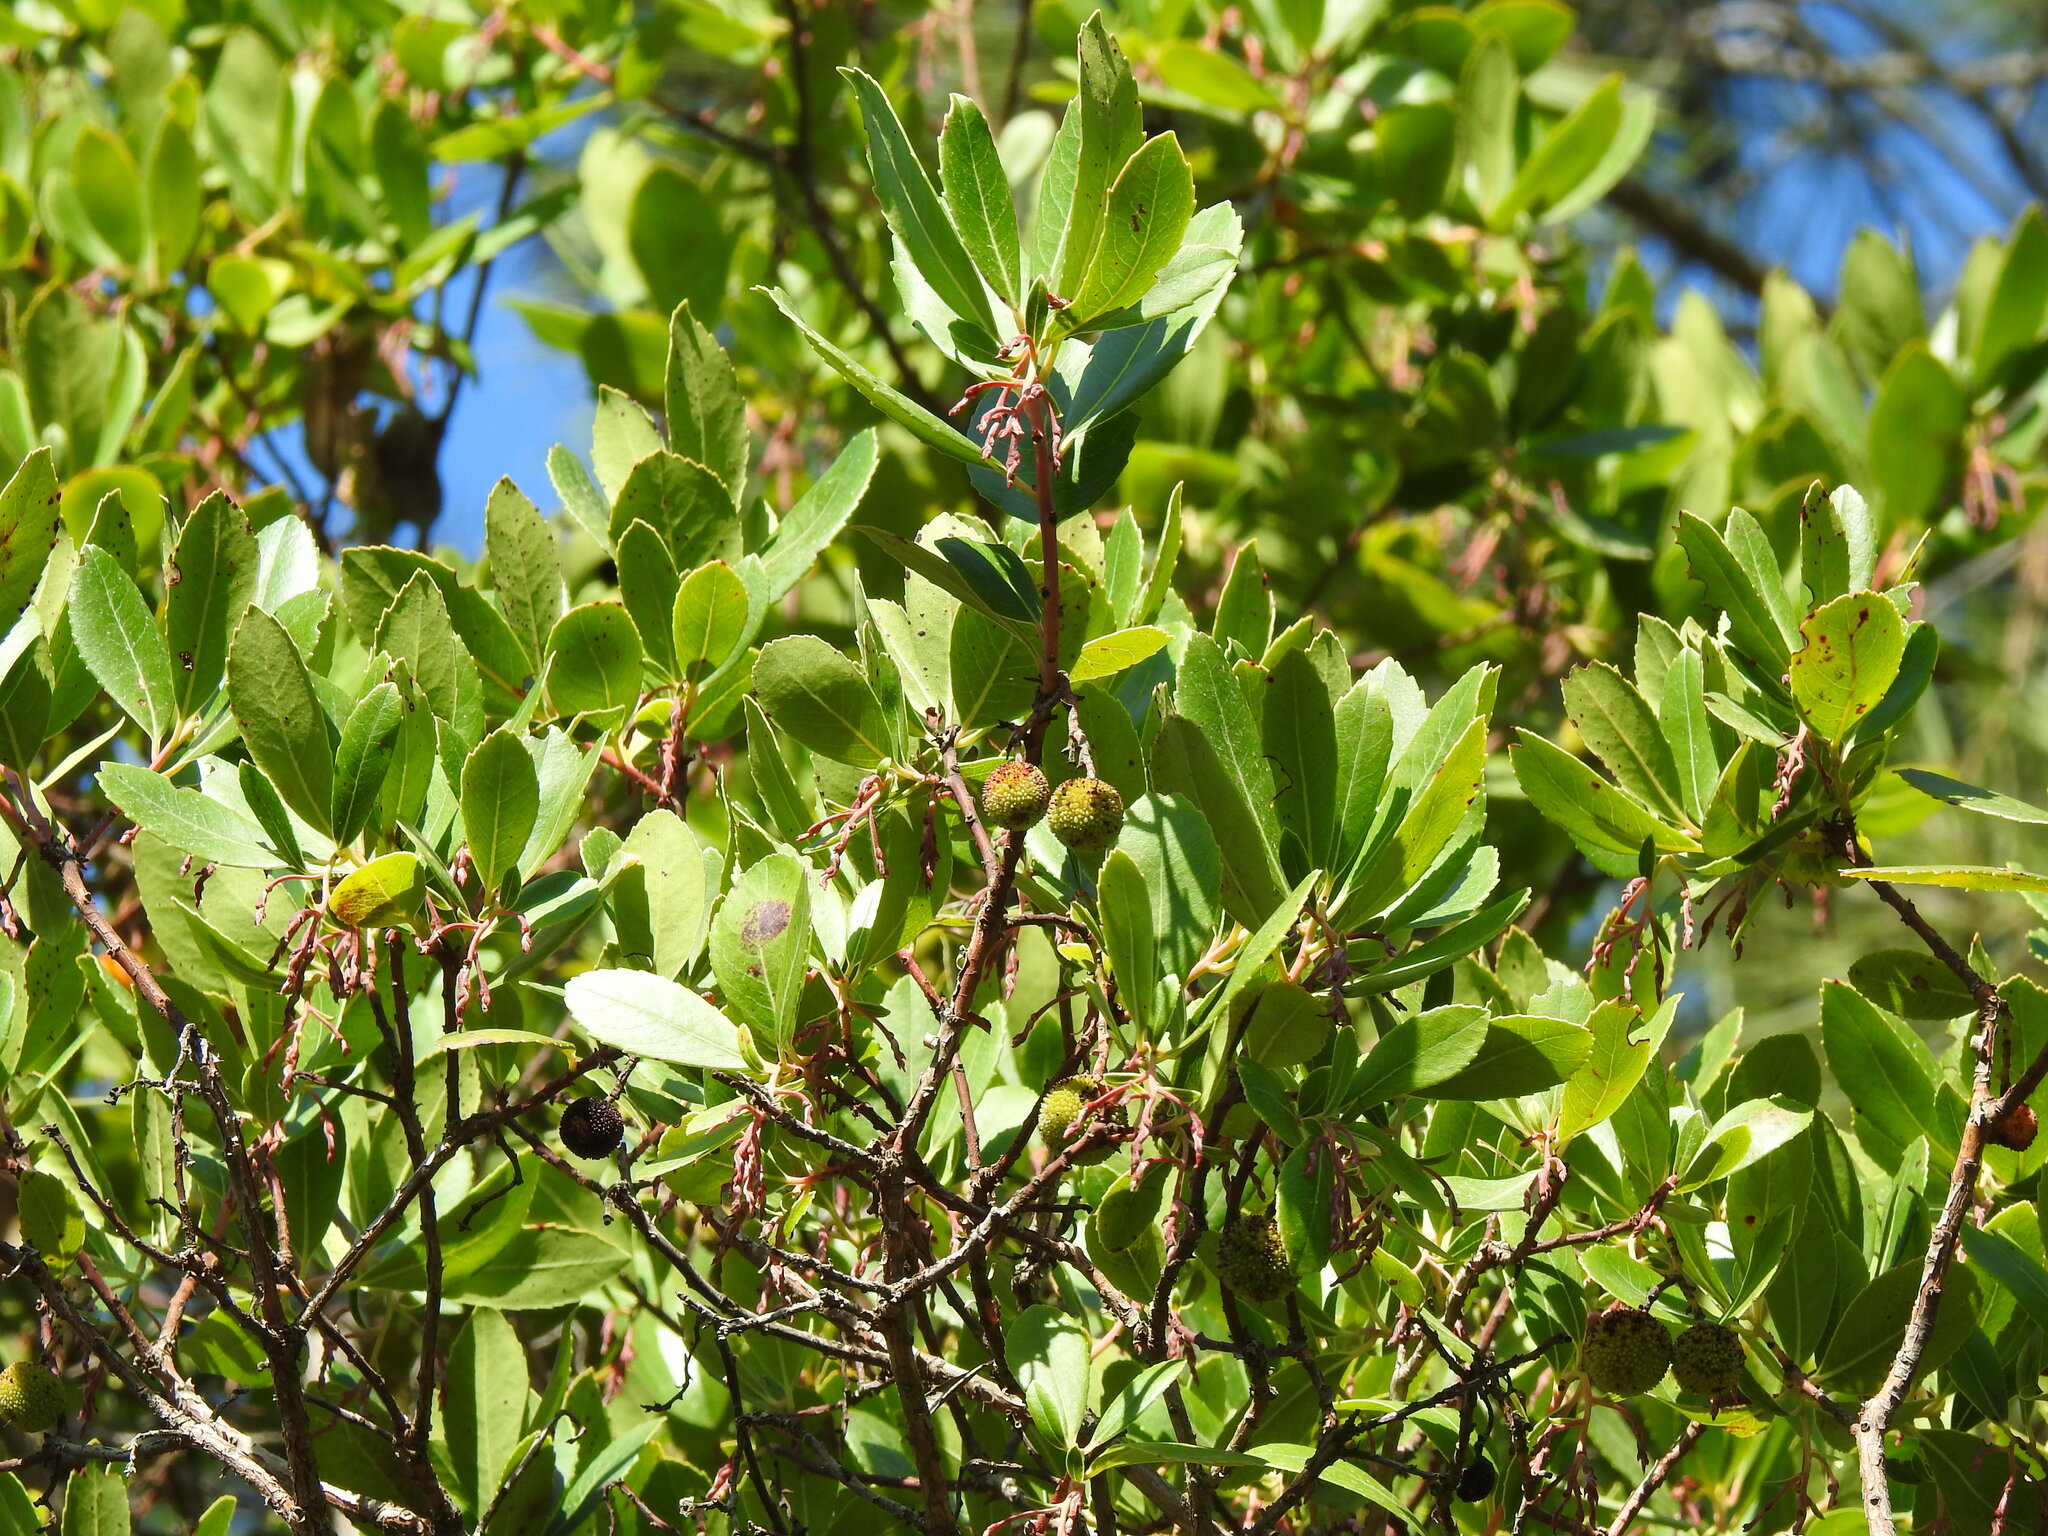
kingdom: Plantae
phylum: Tracheophyta
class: Magnoliopsida
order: Ericales
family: Ericaceae
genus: Arbutus
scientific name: Arbutus unedo
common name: Strawberry-tree
